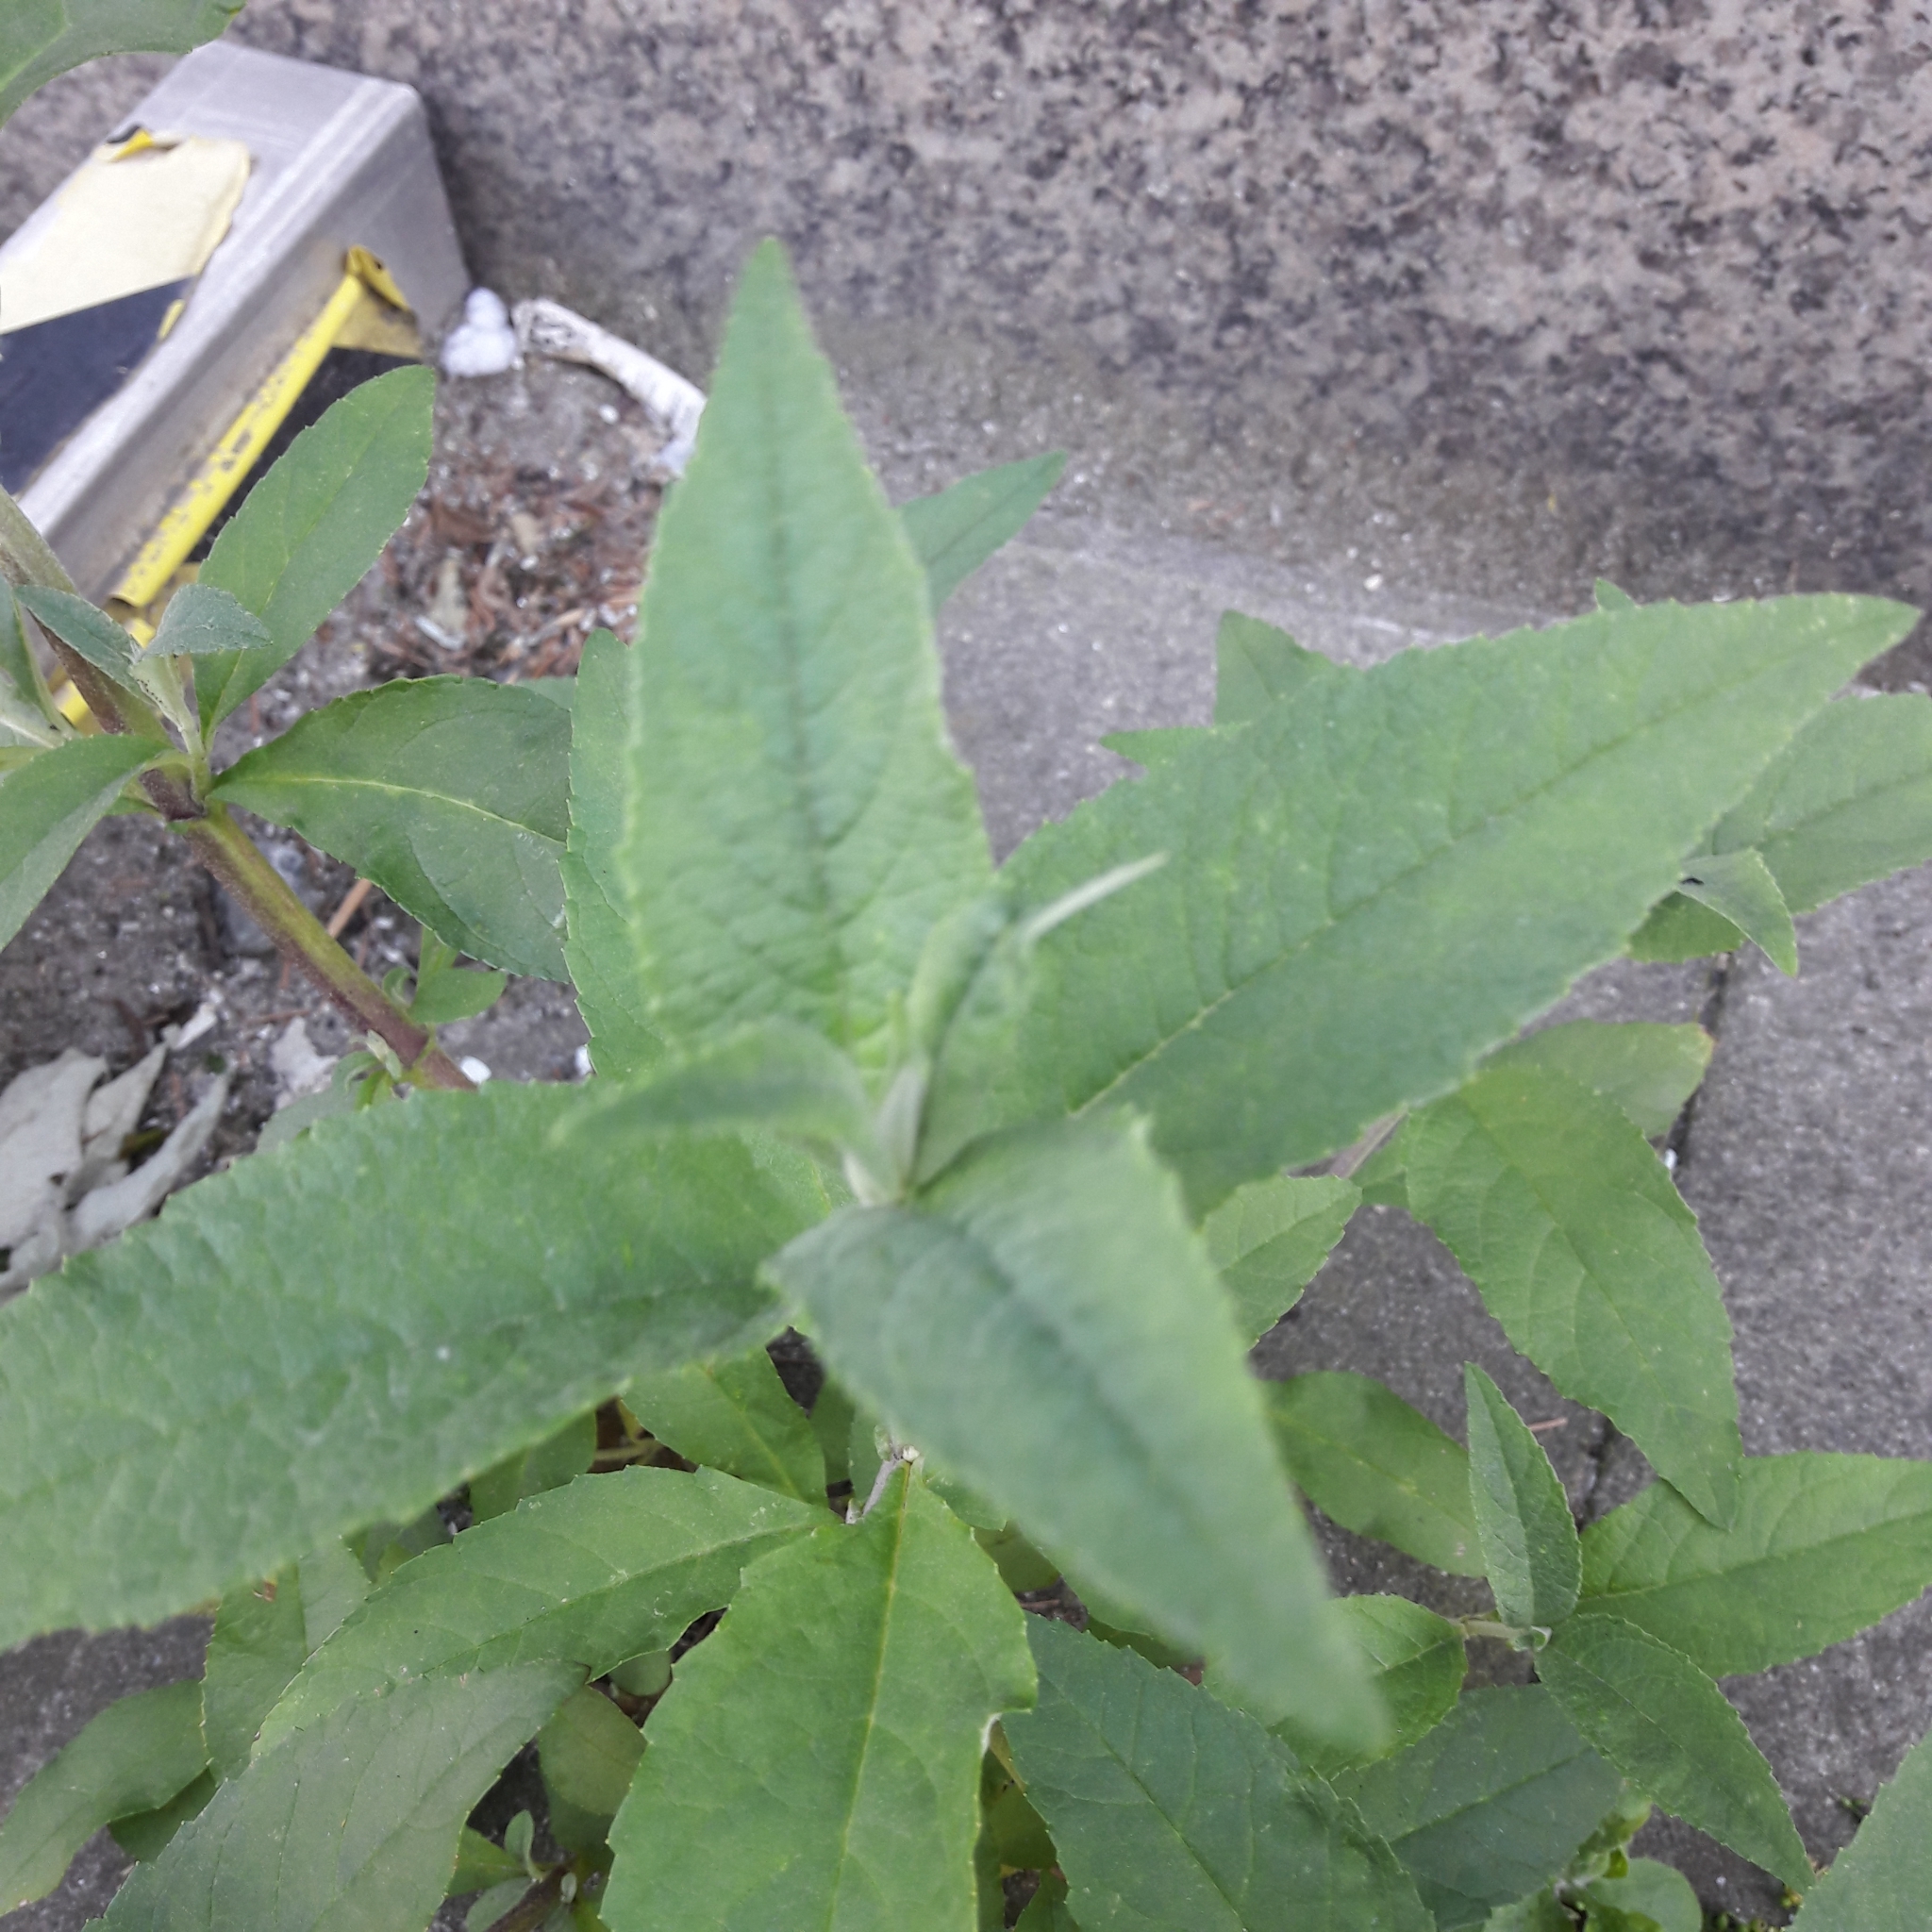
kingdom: Plantae
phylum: Tracheophyta
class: Magnoliopsida
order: Lamiales
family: Scrophulariaceae
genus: Buddleja
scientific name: Buddleja davidii
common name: Butterfly-bush
